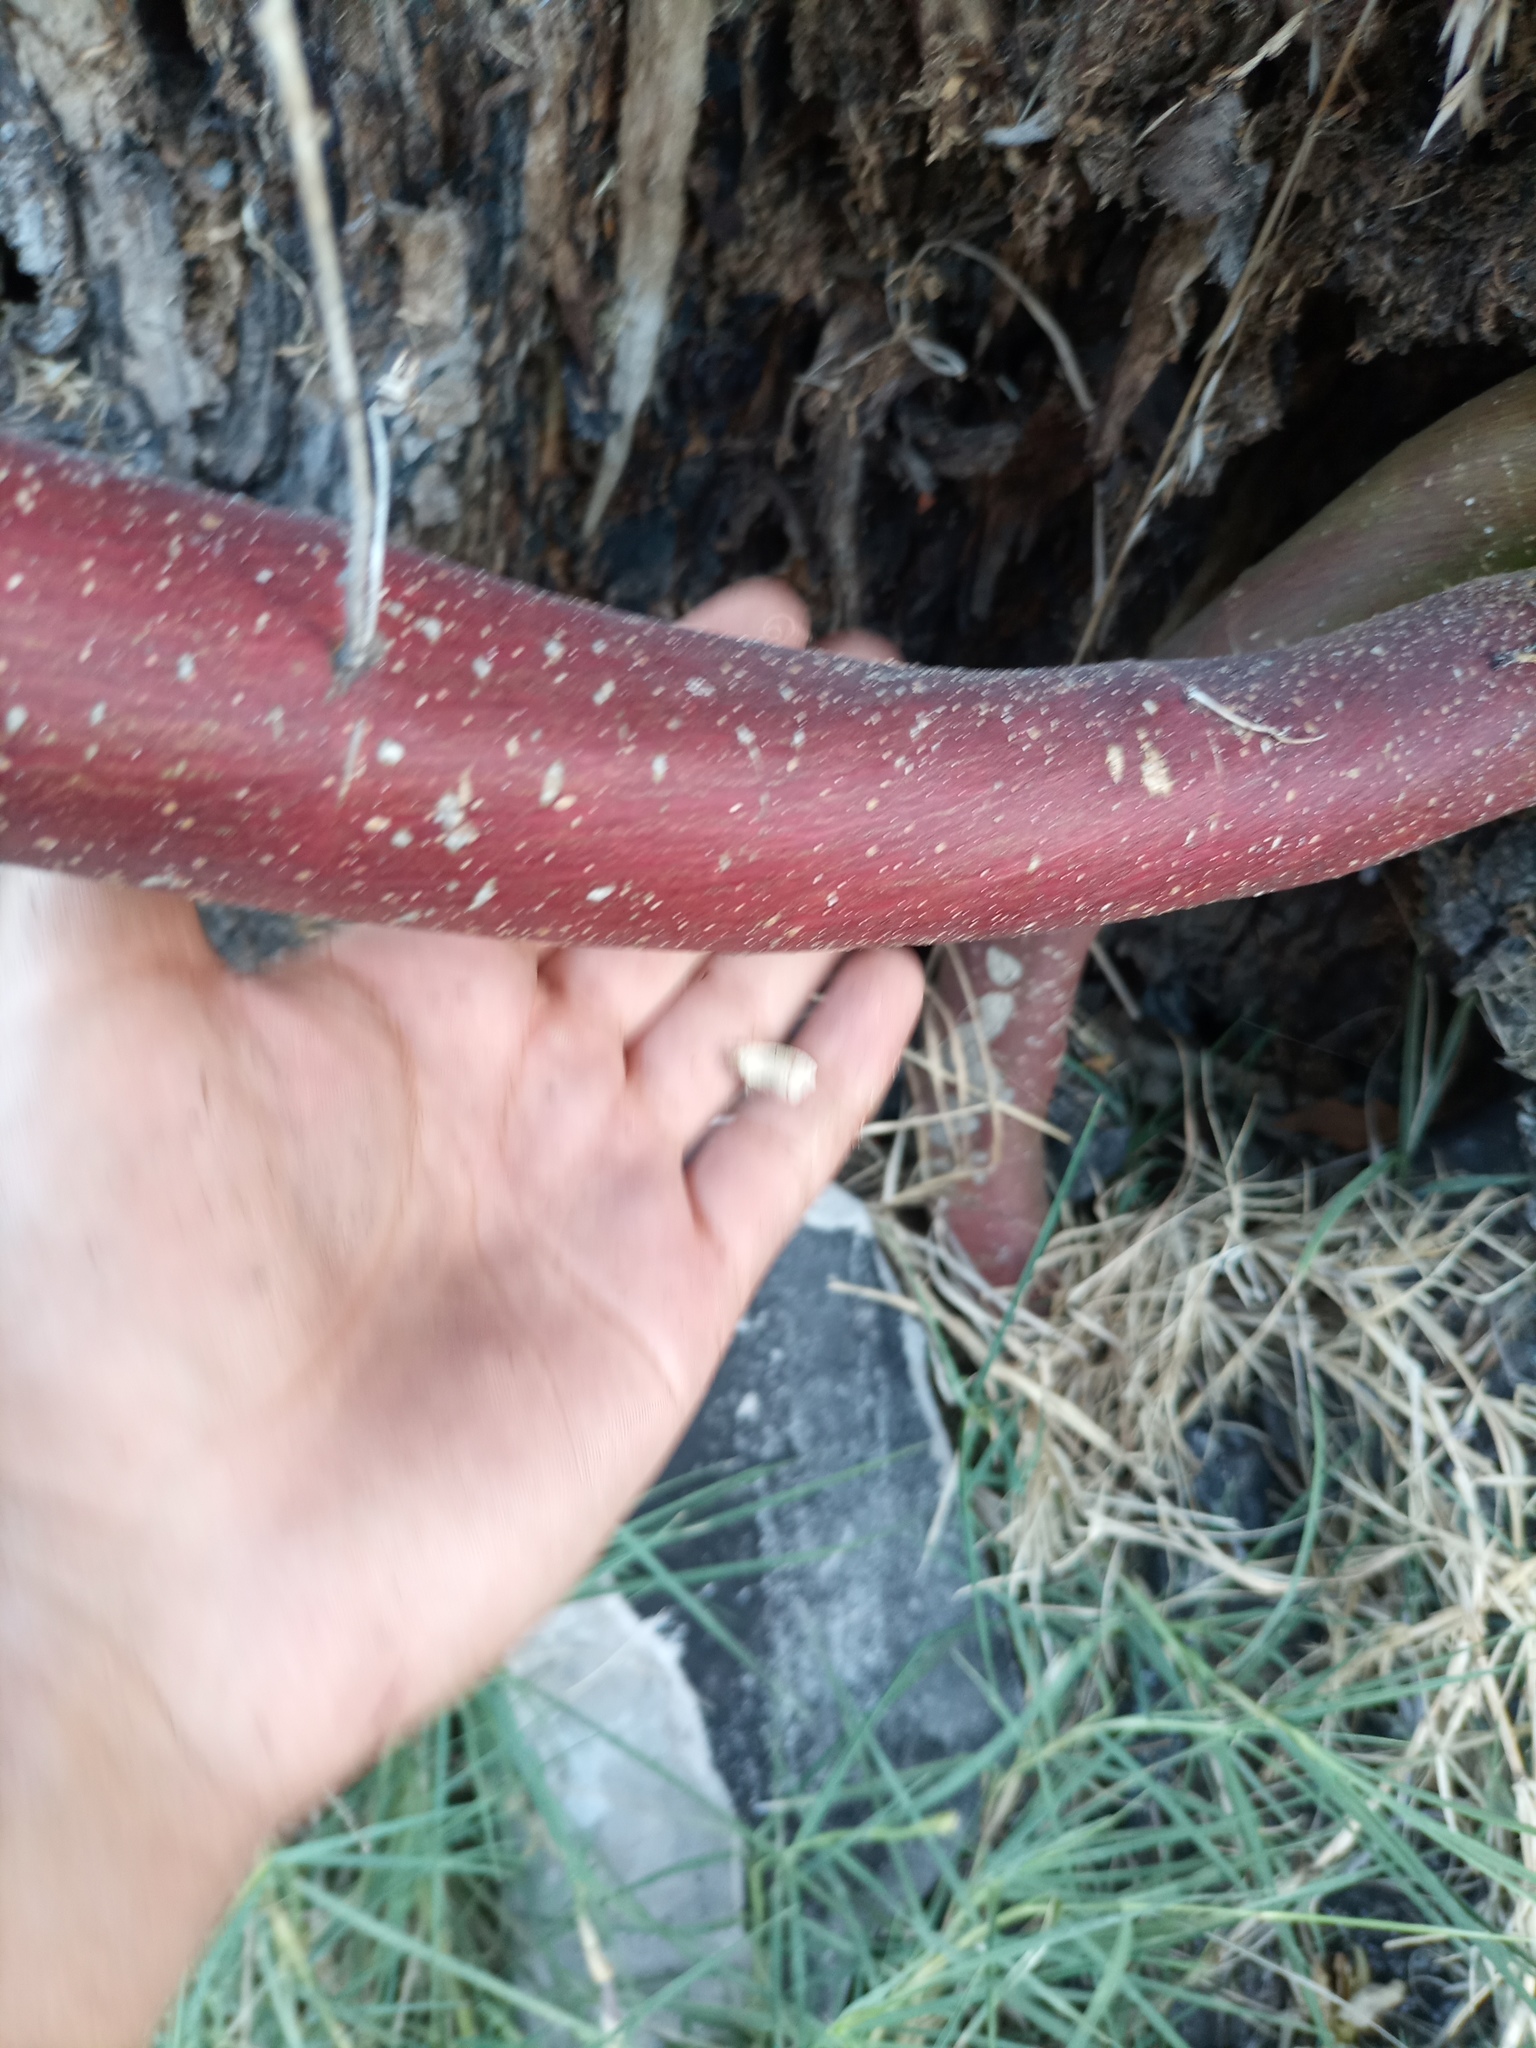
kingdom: Plantae
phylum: Tracheophyta
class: Magnoliopsida
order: Malpighiales
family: Passifloraceae
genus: Passiflora
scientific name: Passiflora caerulea
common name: Blue passionflower
